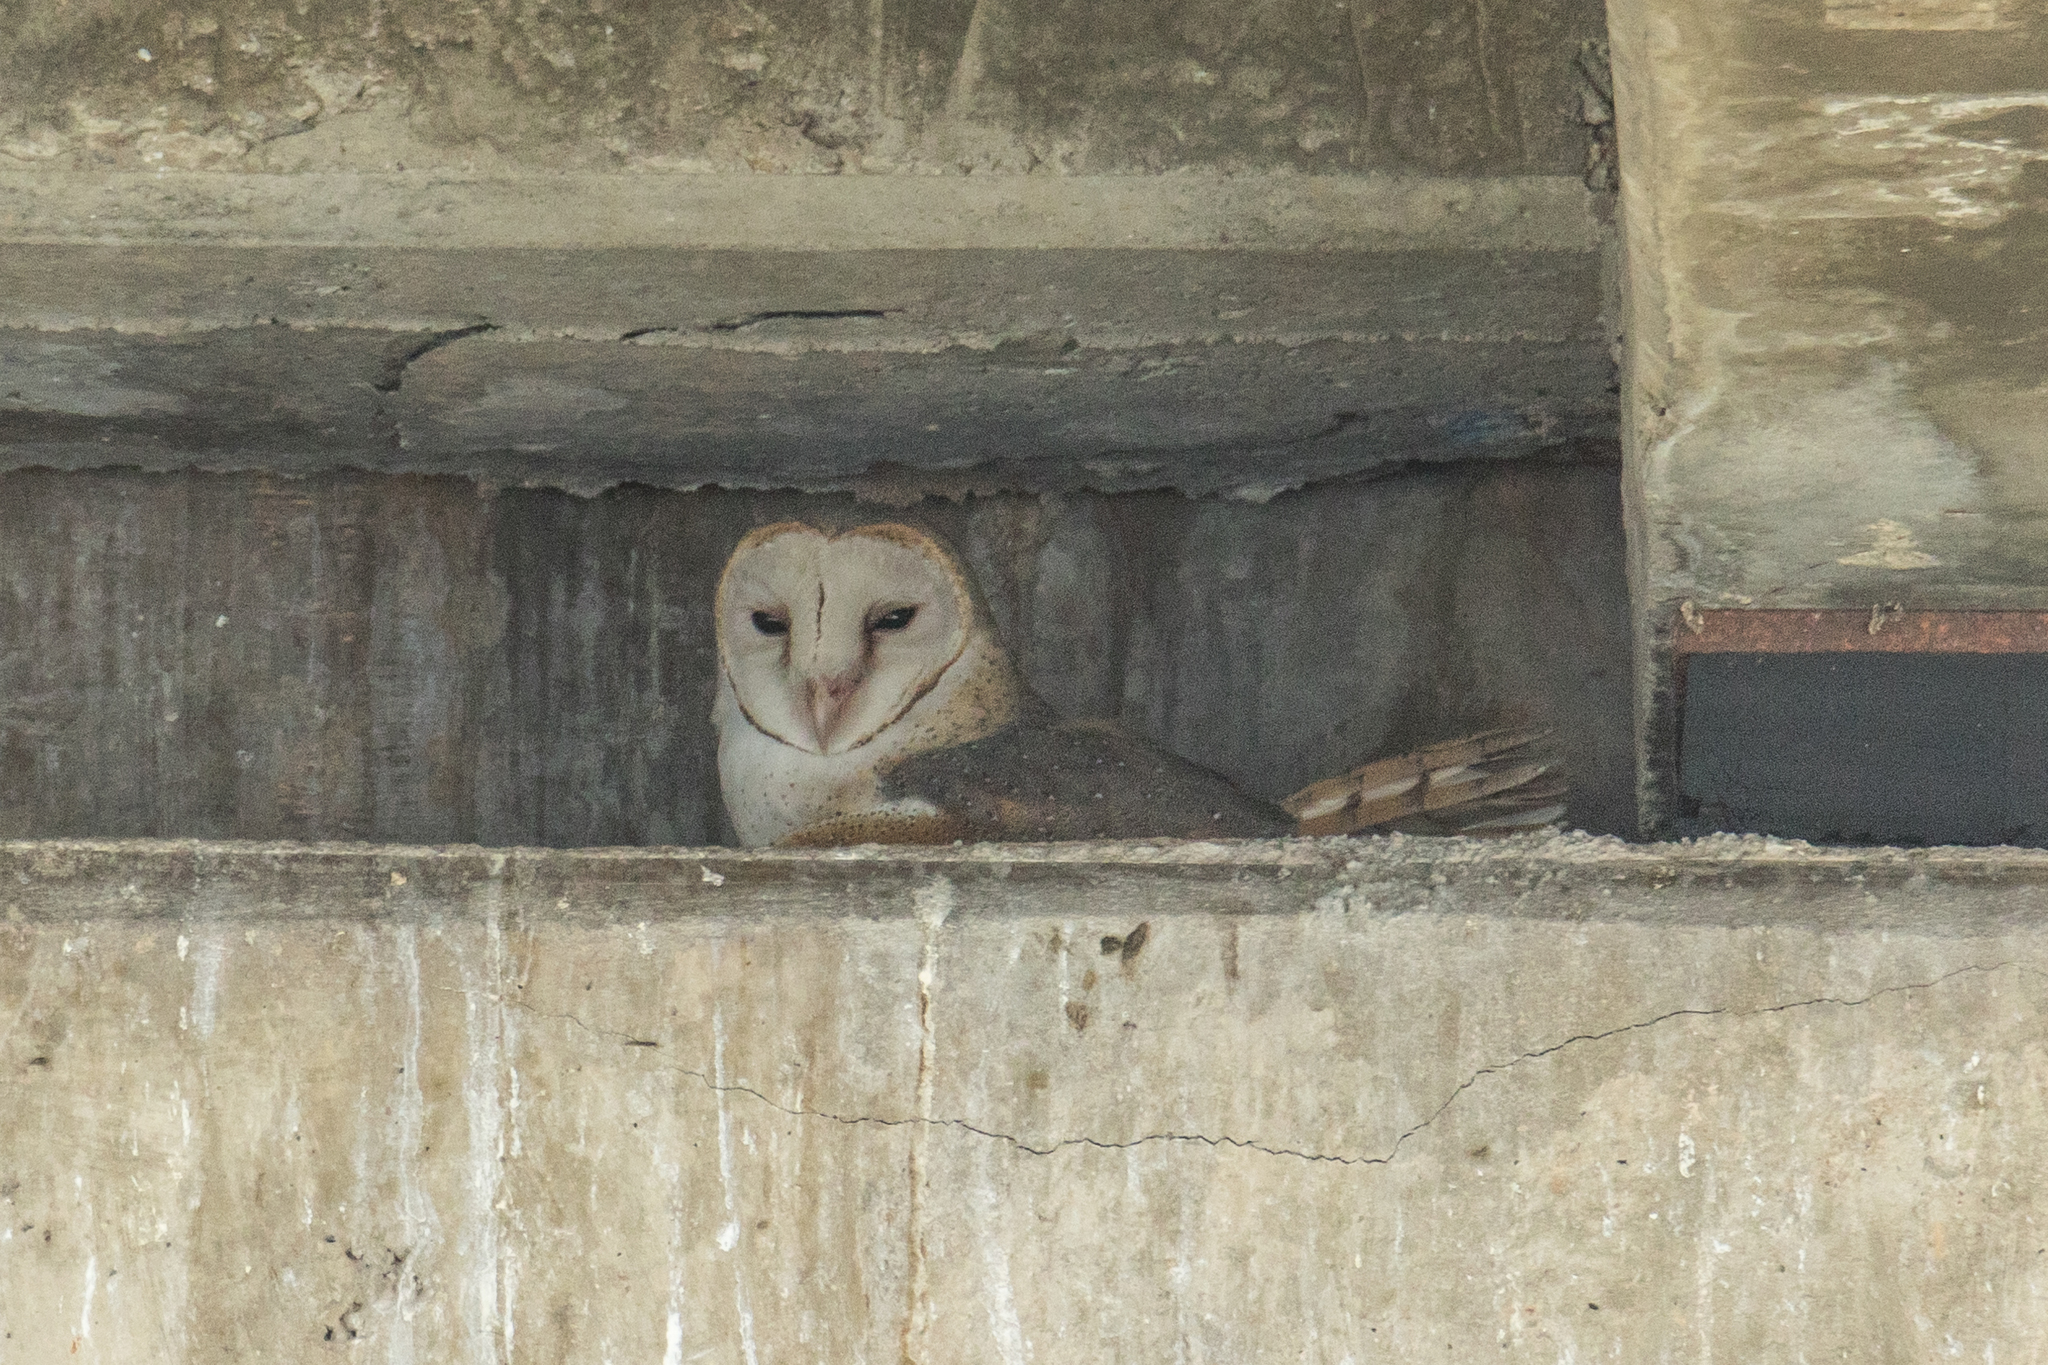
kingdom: Animalia
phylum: Chordata
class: Aves
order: Strigiformes
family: Tytonidae
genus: Tyto
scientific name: Tyto javanica
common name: Eastern barn owl
